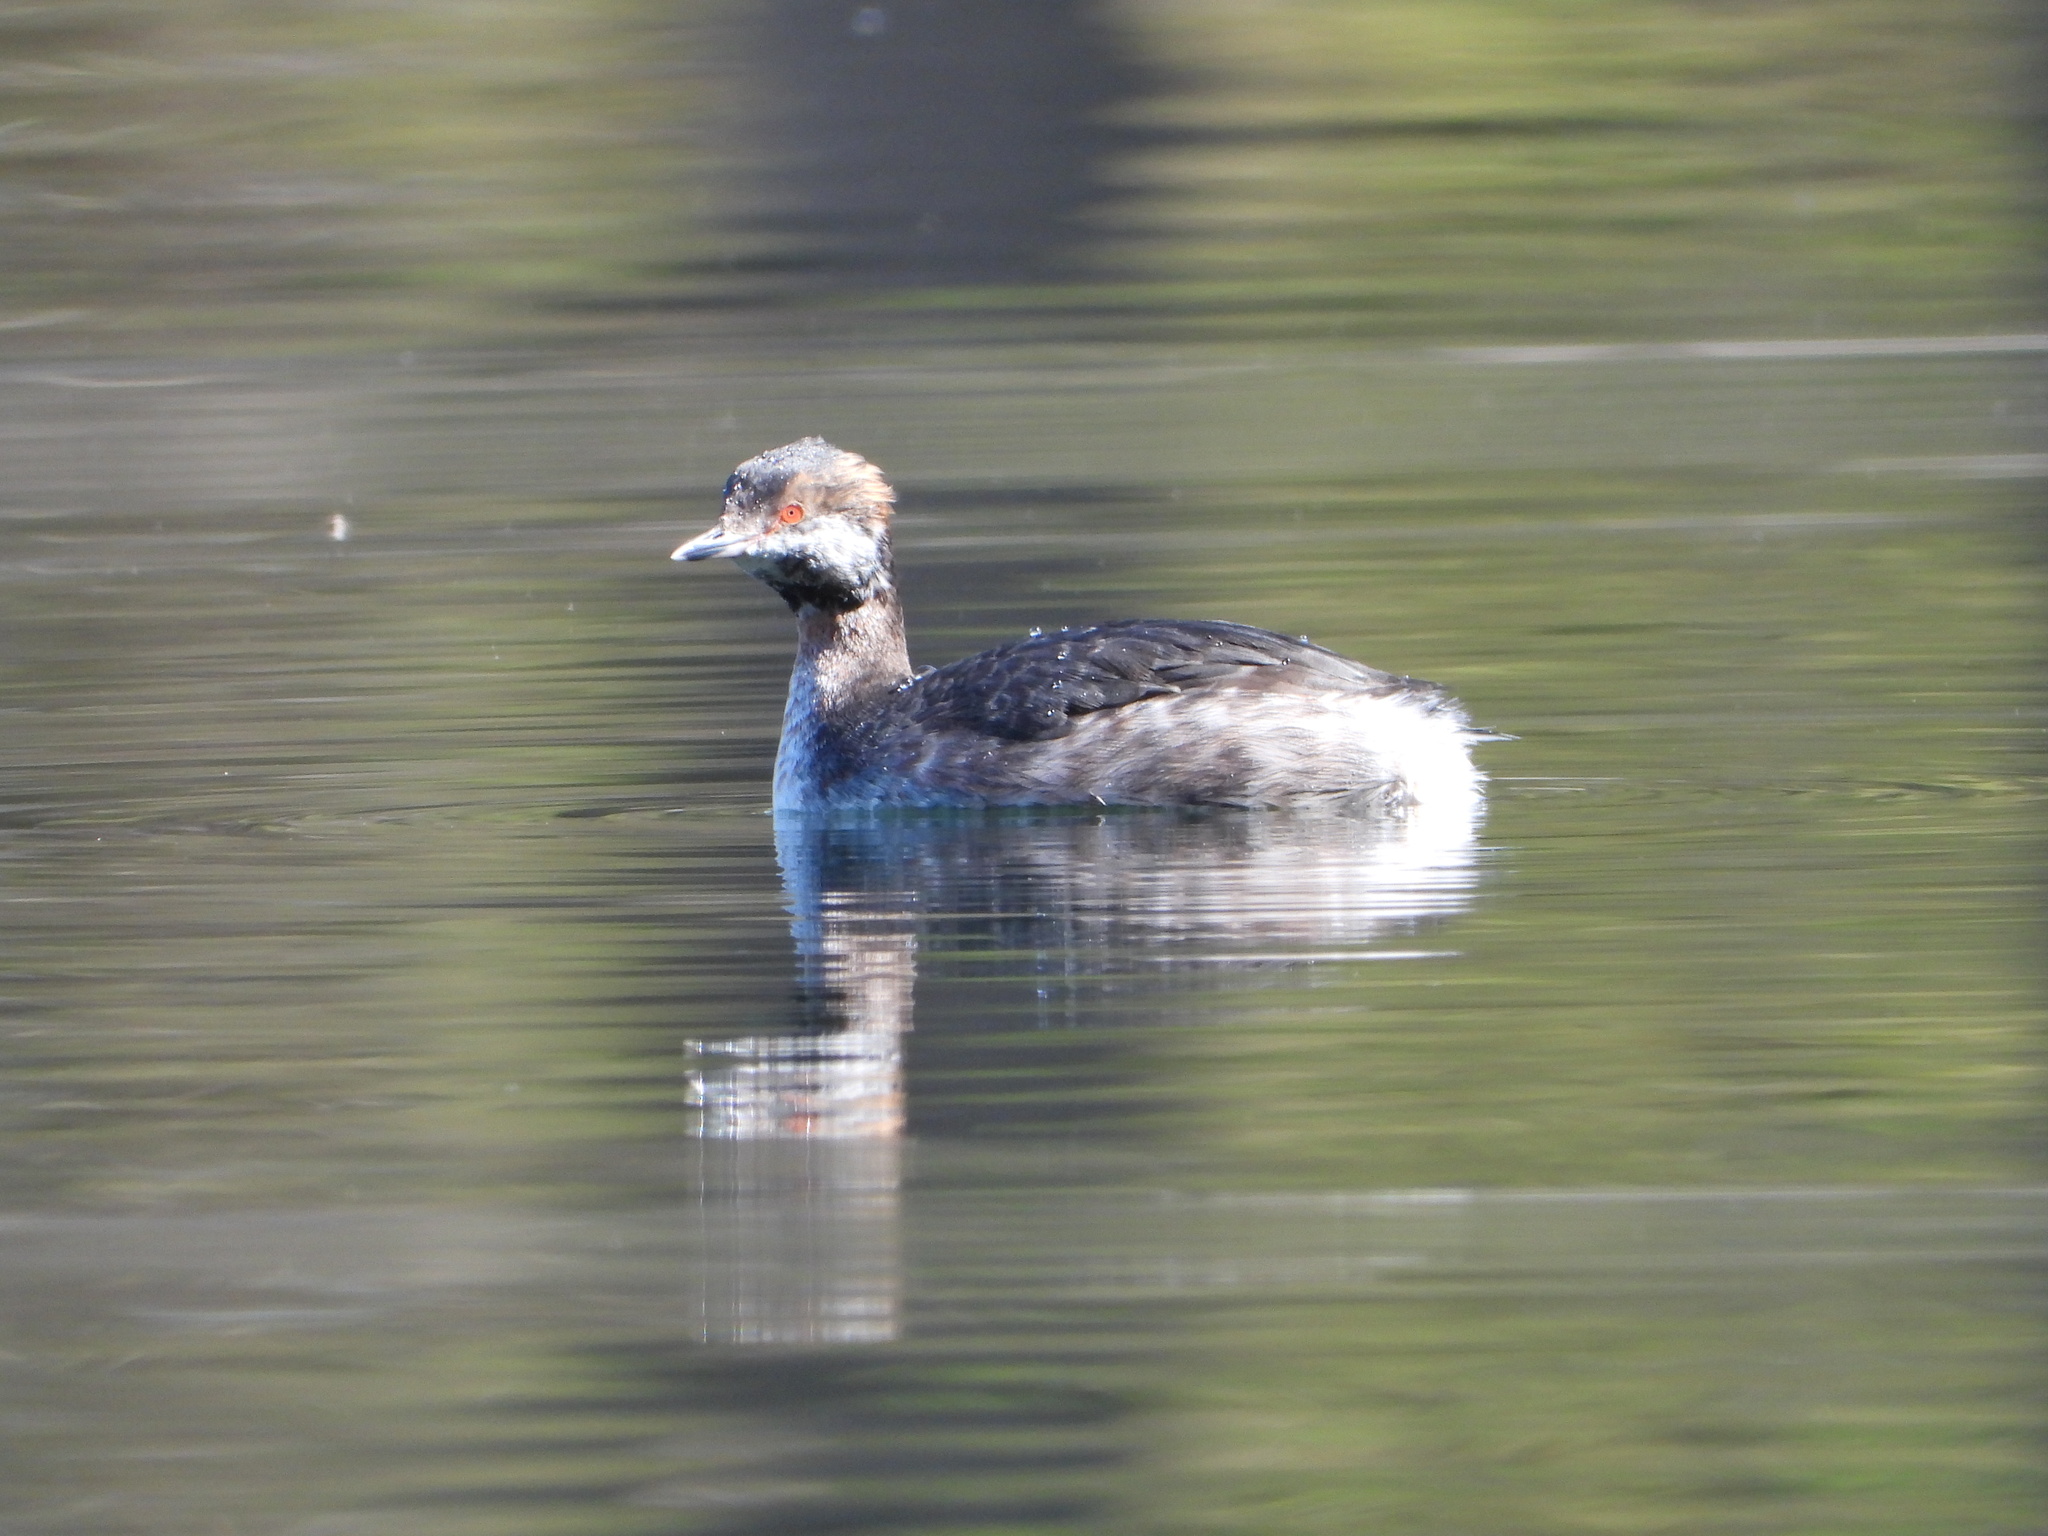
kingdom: Animalia
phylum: Chordata
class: Aves
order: Podicipediformes
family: Podicipedidae
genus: Podiceps
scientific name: Podiceps auritus
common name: Horned grebe
